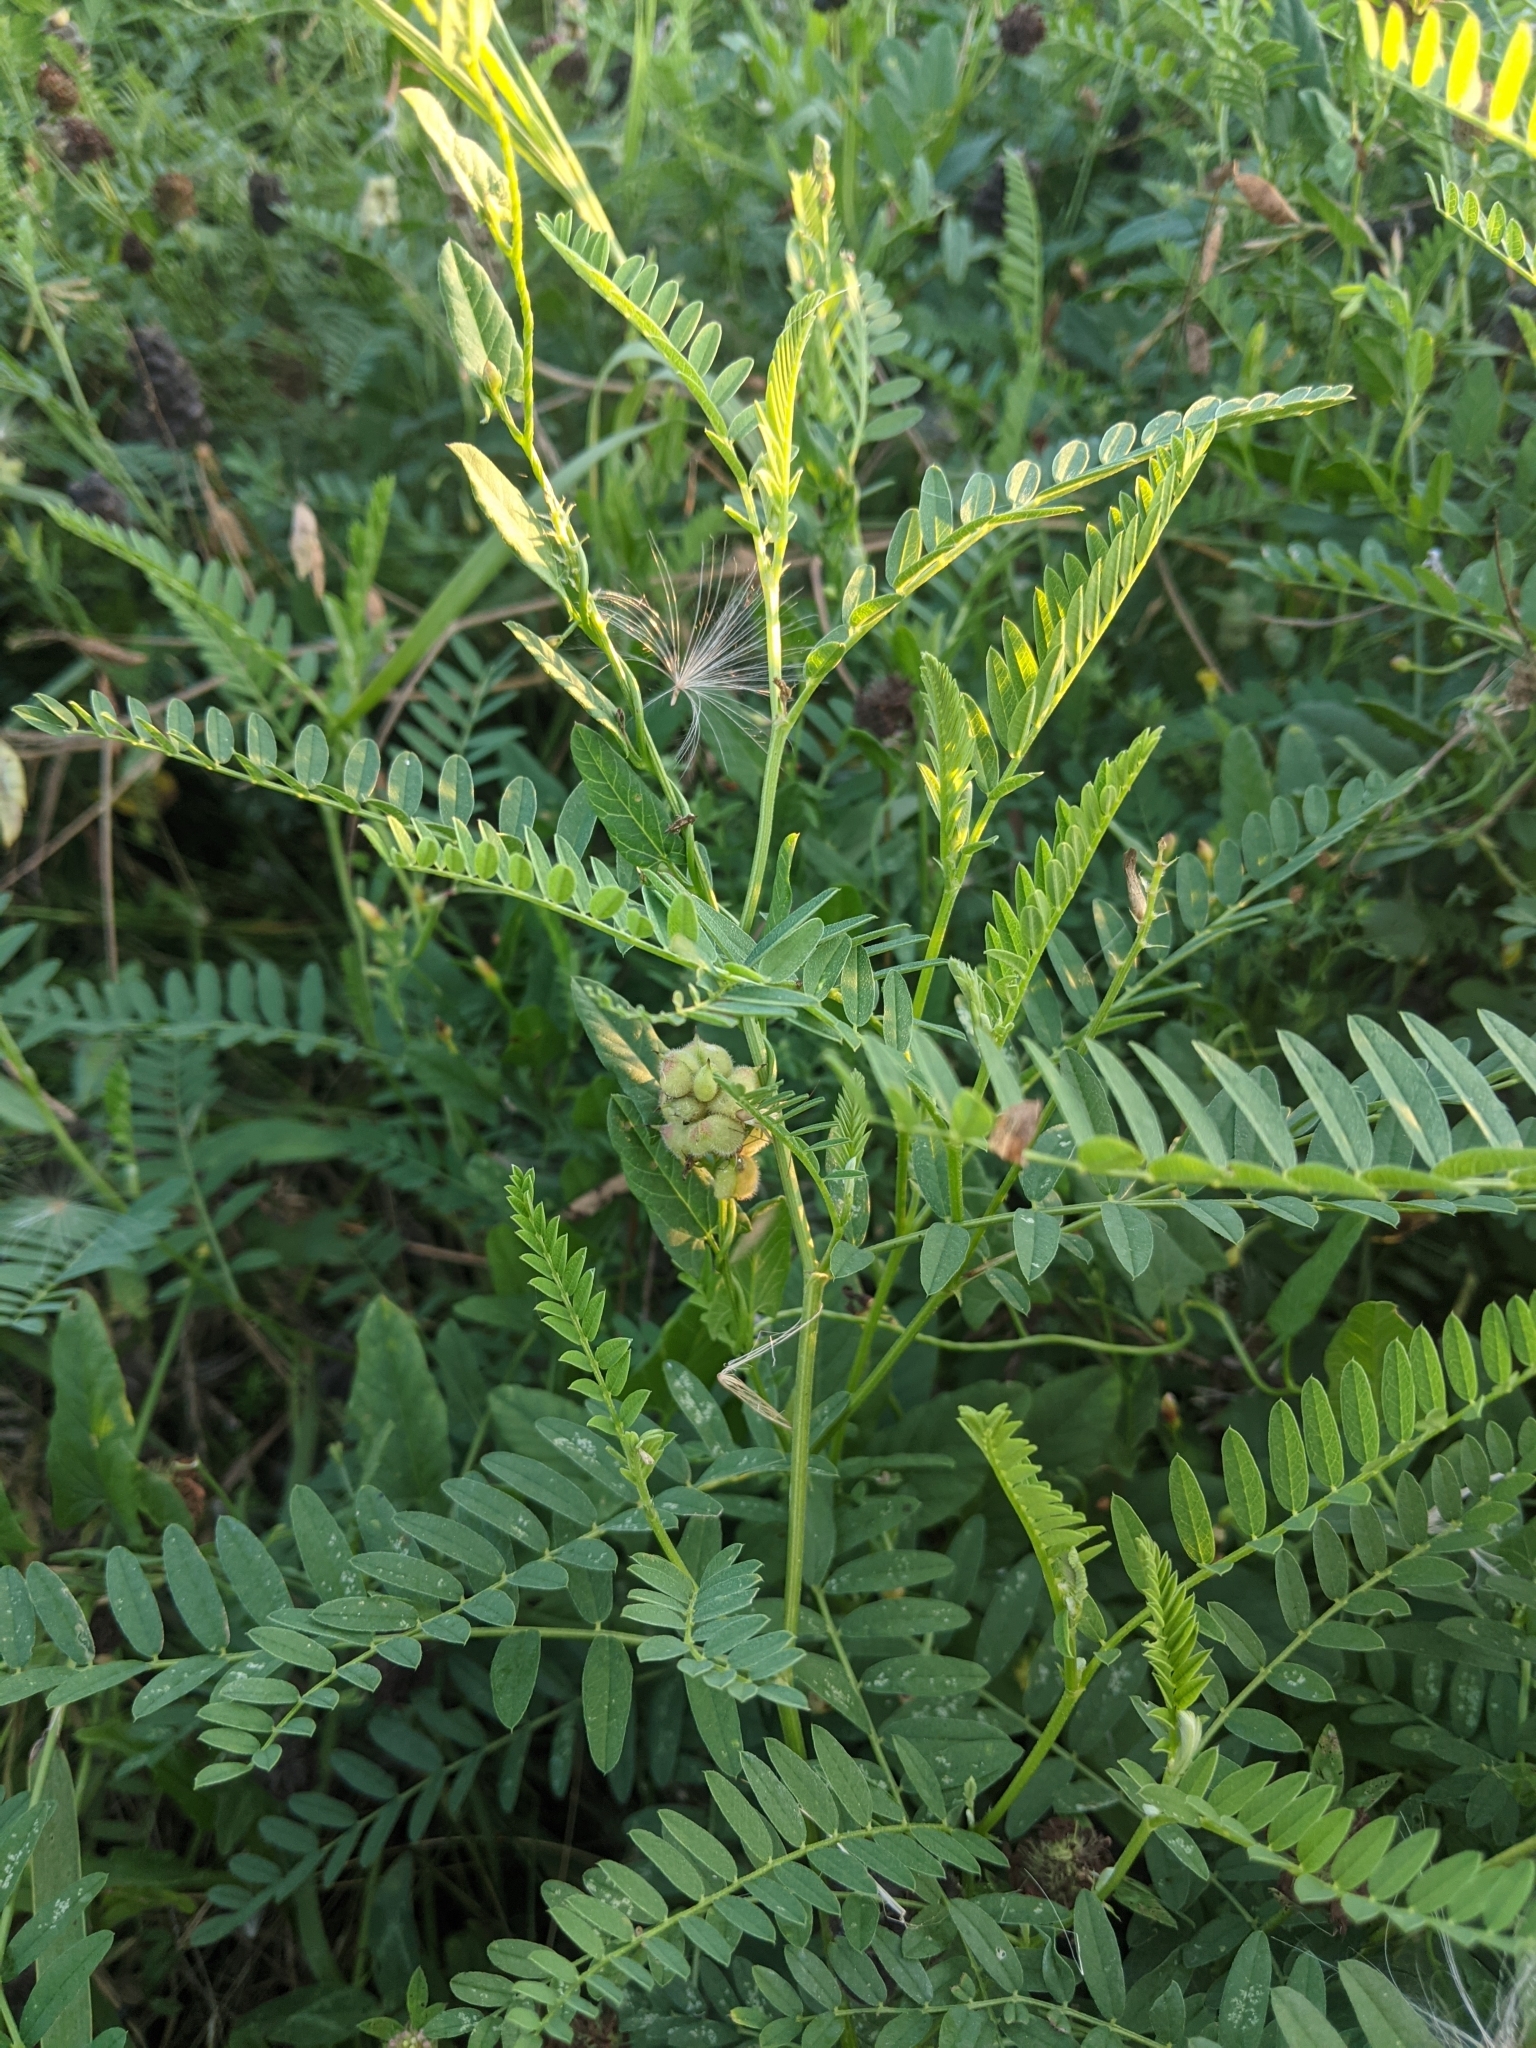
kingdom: Plantae
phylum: Tracheophyta
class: Magnoliopsida
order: Fabales
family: Fabaceae
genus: Astragalus
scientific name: Astragalus cicer
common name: Chick-pea milk-vetch
